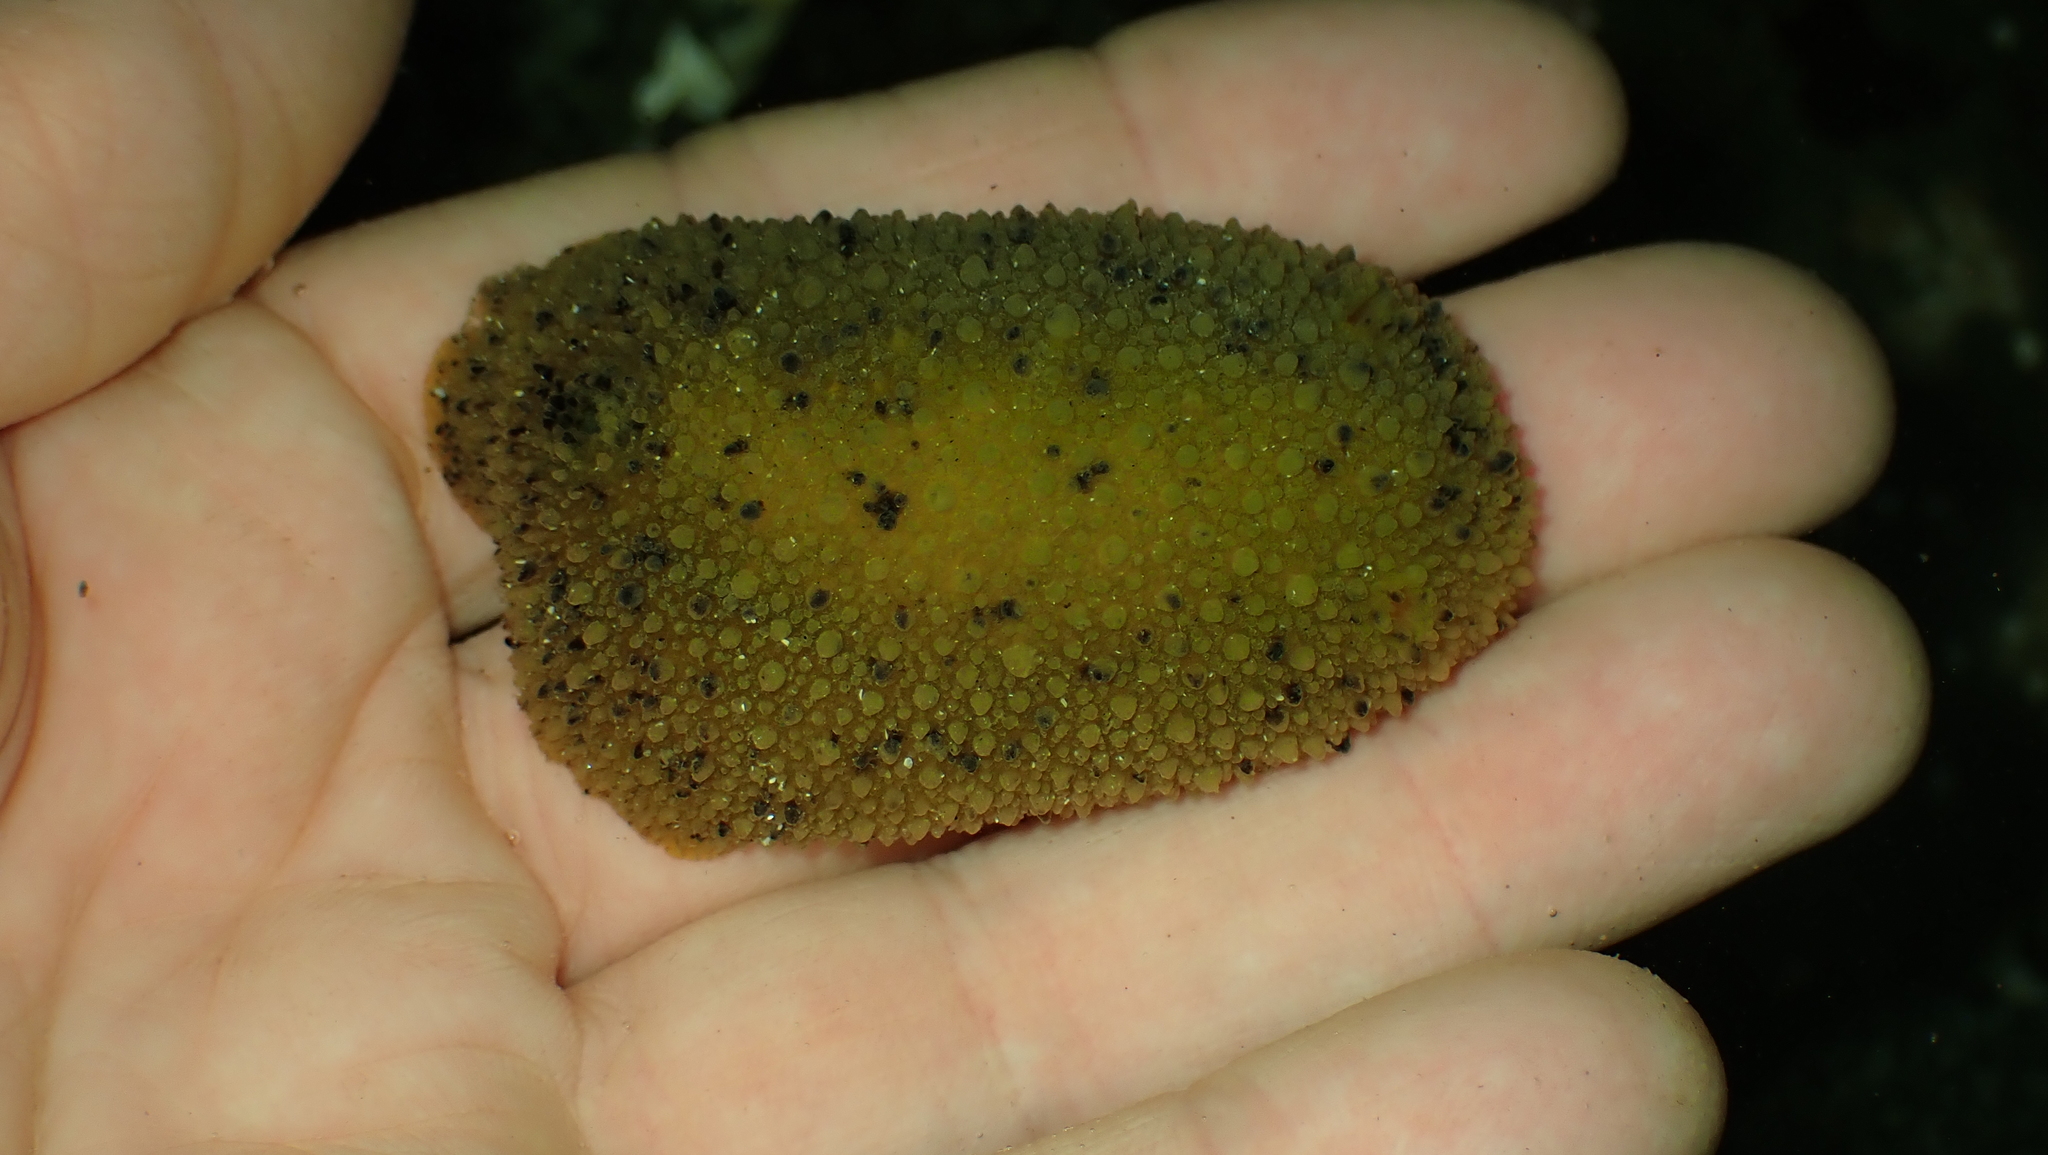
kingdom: Animalia
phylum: Mollusca
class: Gastropoda
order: Nudibranchia
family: Dorididae
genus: Doris
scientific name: Doris montereyensis
